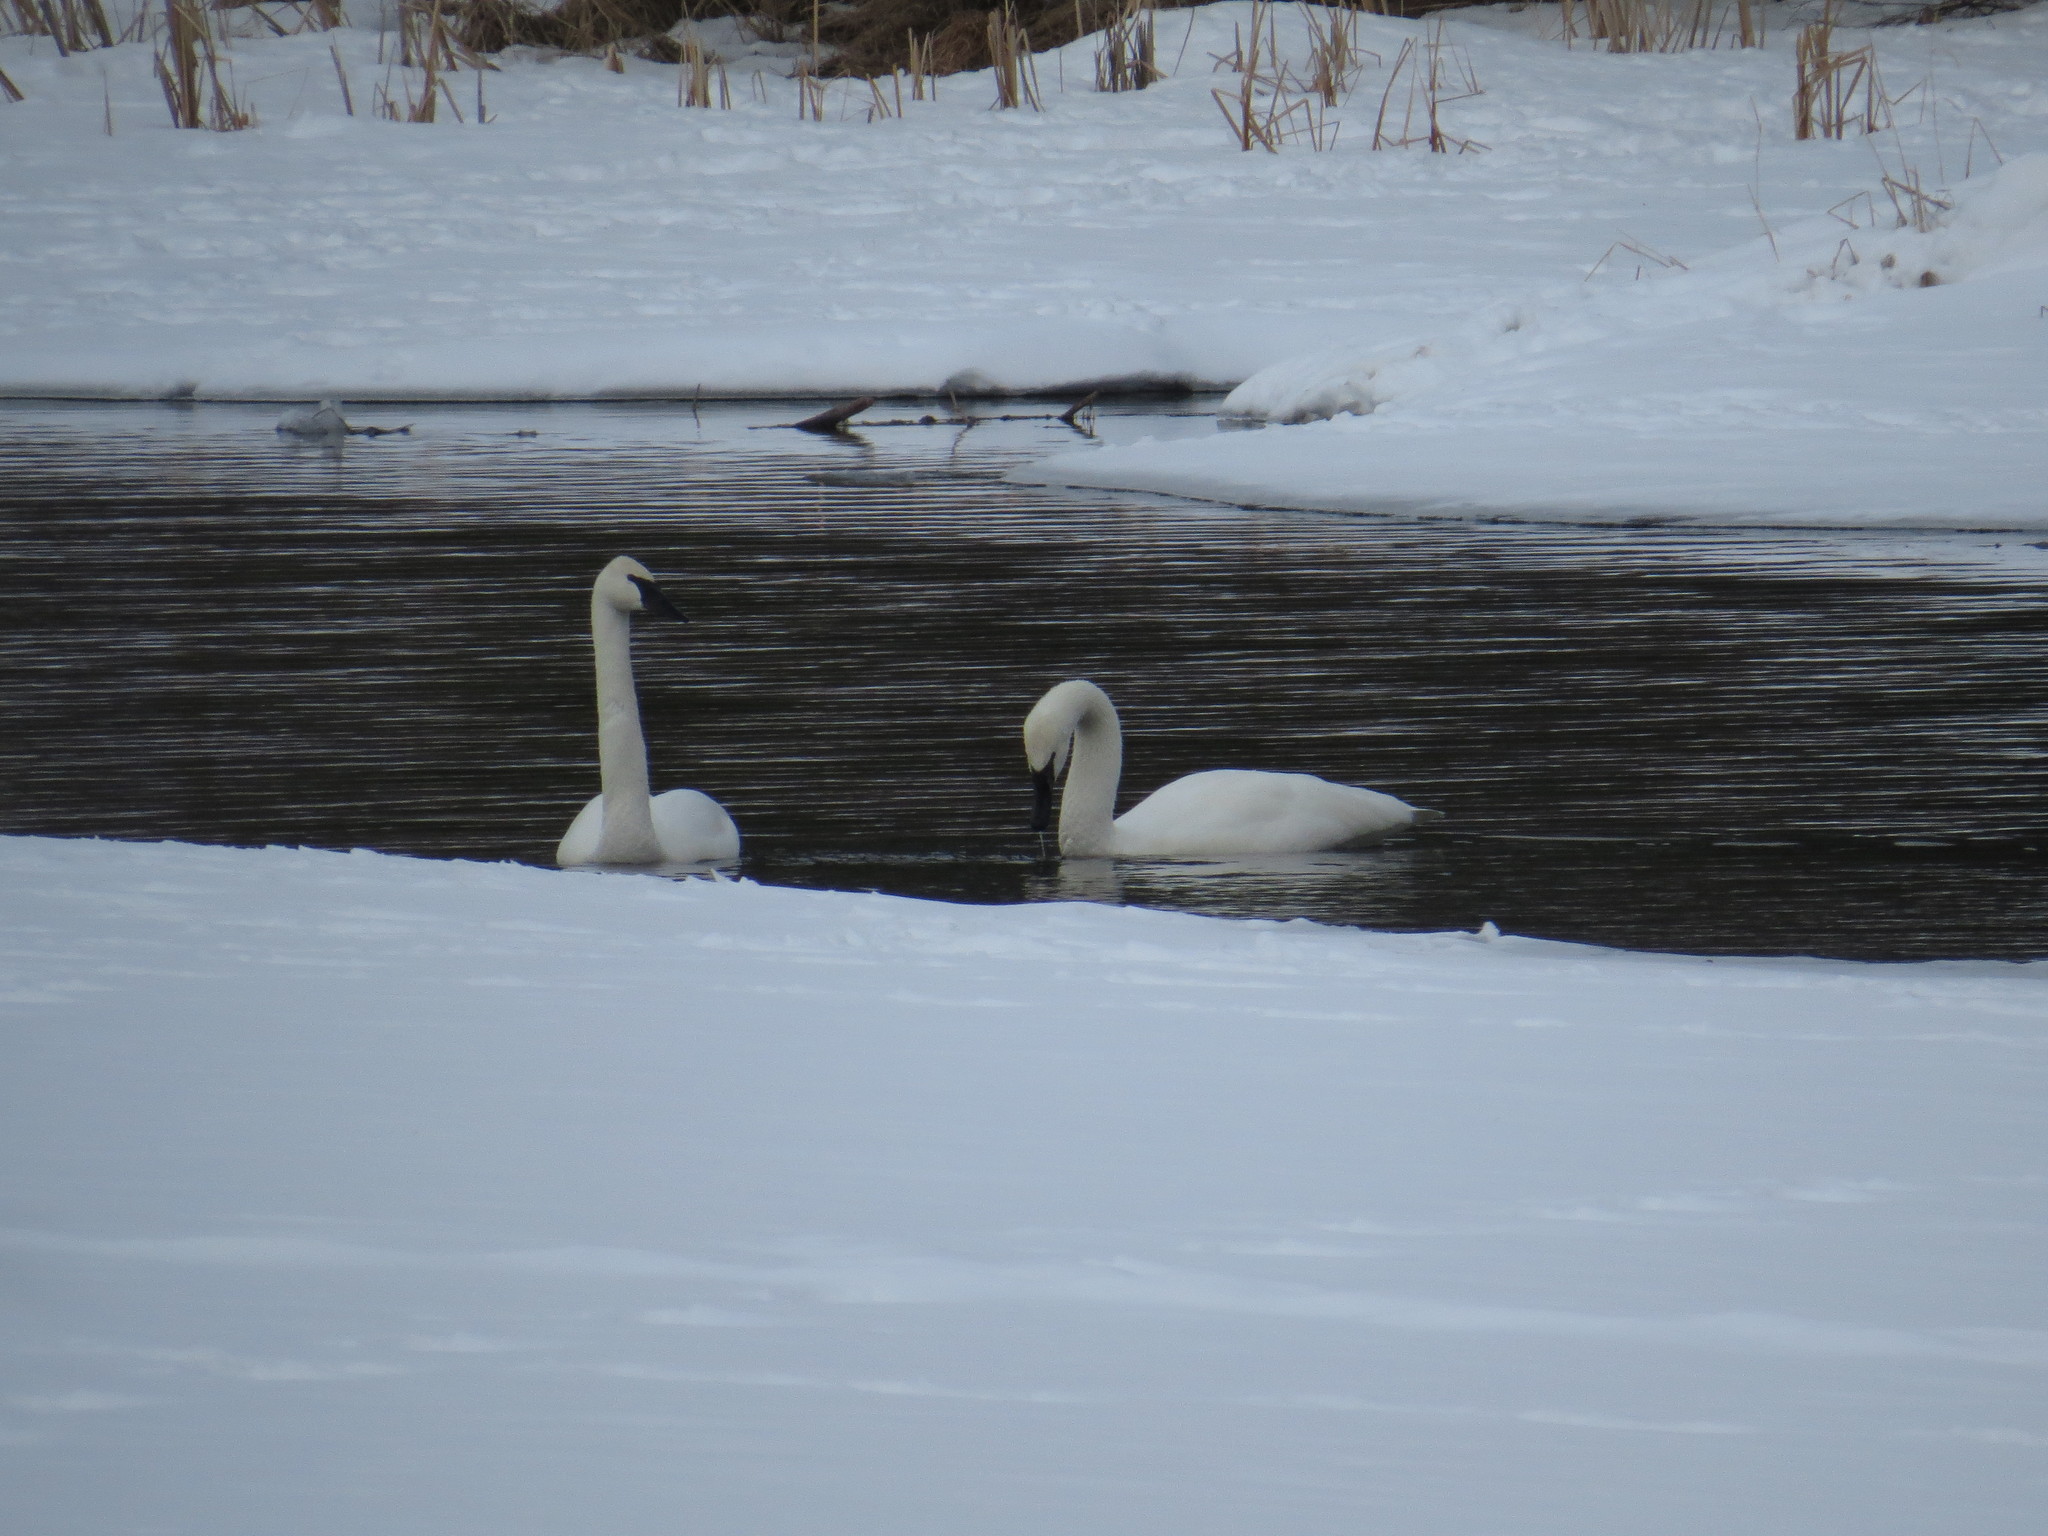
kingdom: Animalia
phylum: Chordata
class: Aves
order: Anseriformes
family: Anatidae
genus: Cygnus
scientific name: Cygnus buccinator
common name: Trumpeter swan
